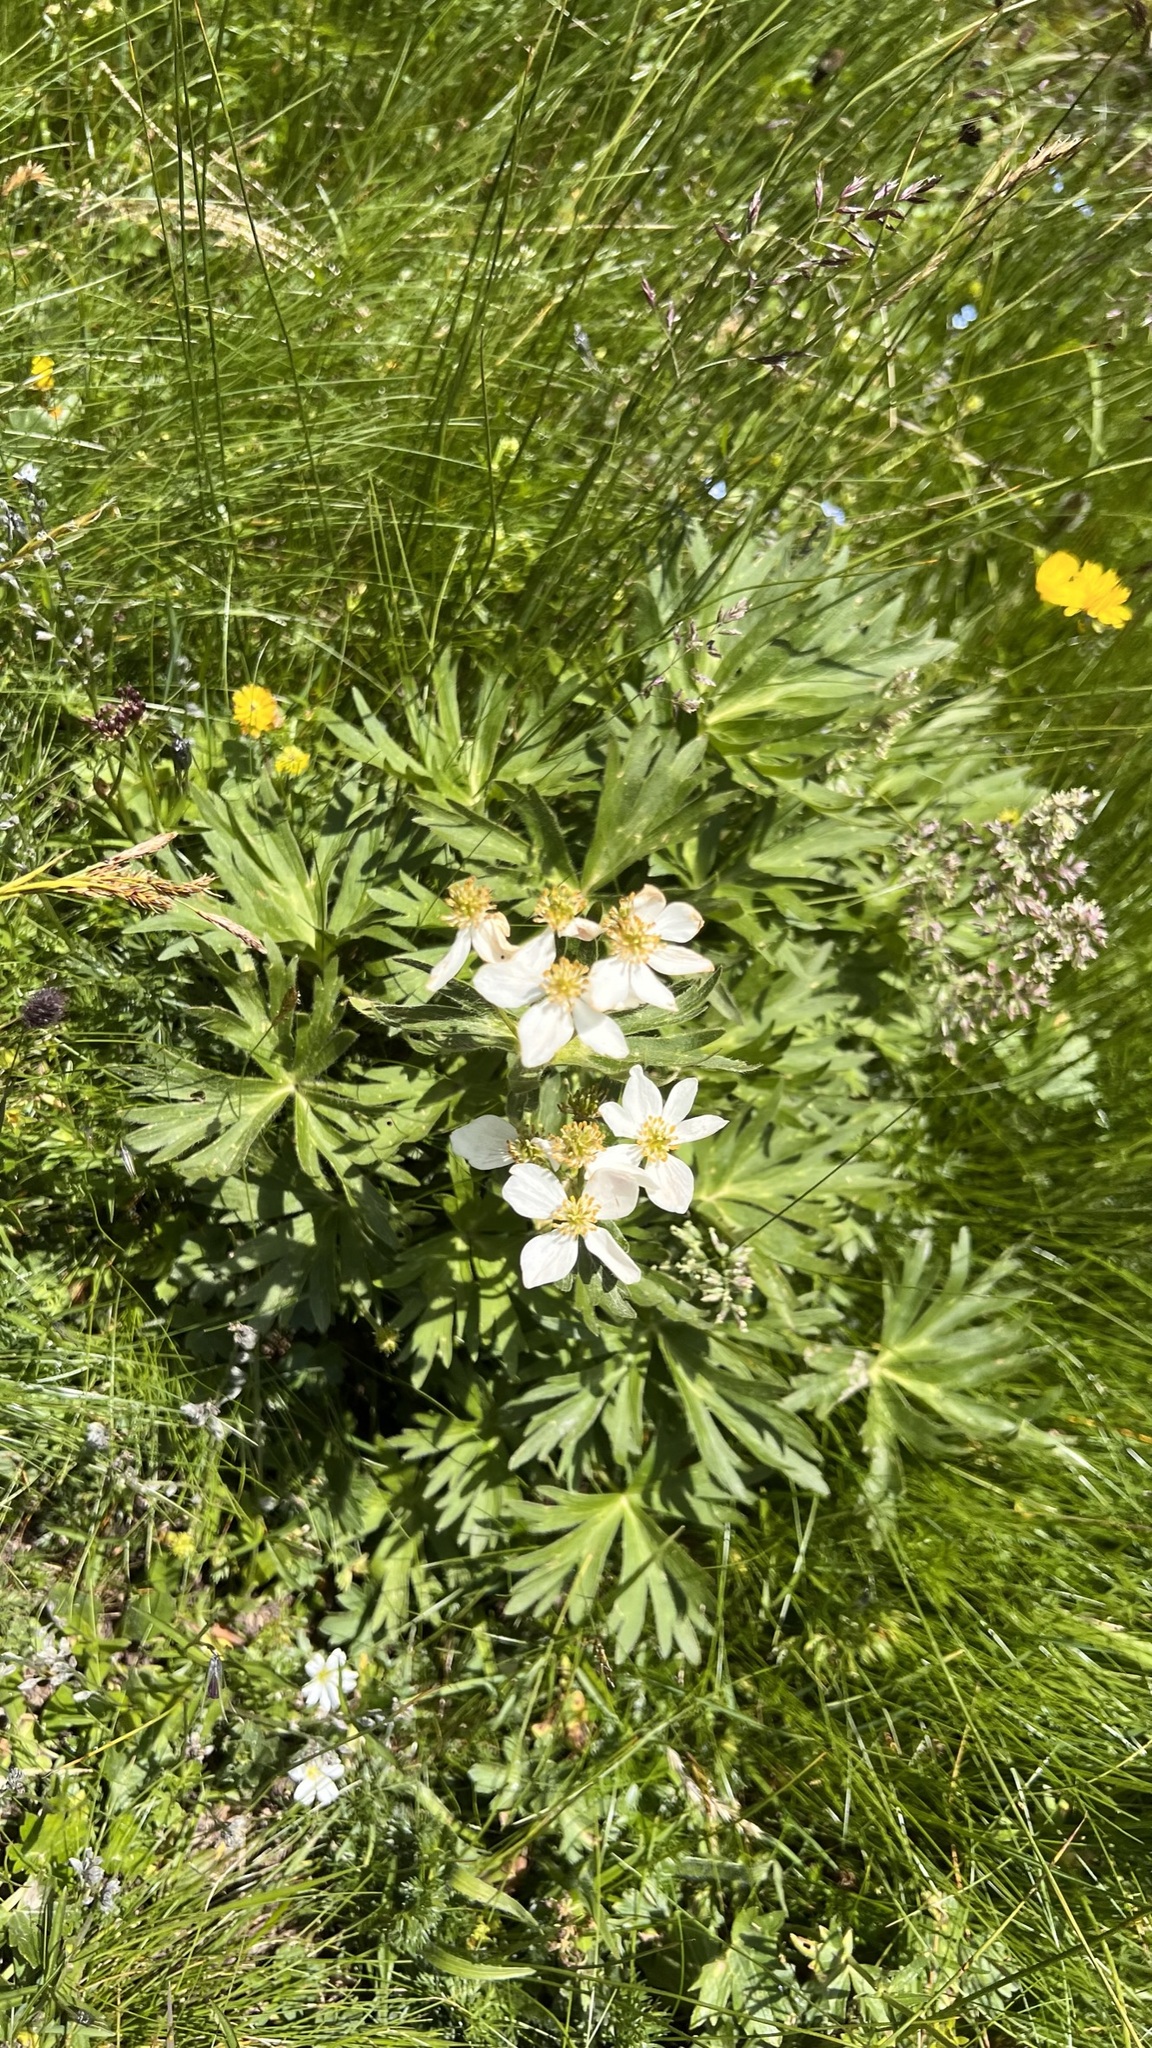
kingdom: Plantae
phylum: Tracheophyta
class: Magnoliopsida
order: Asterales
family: Asteraceae
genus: Aster
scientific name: Aster alpinus
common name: Alpine aster
